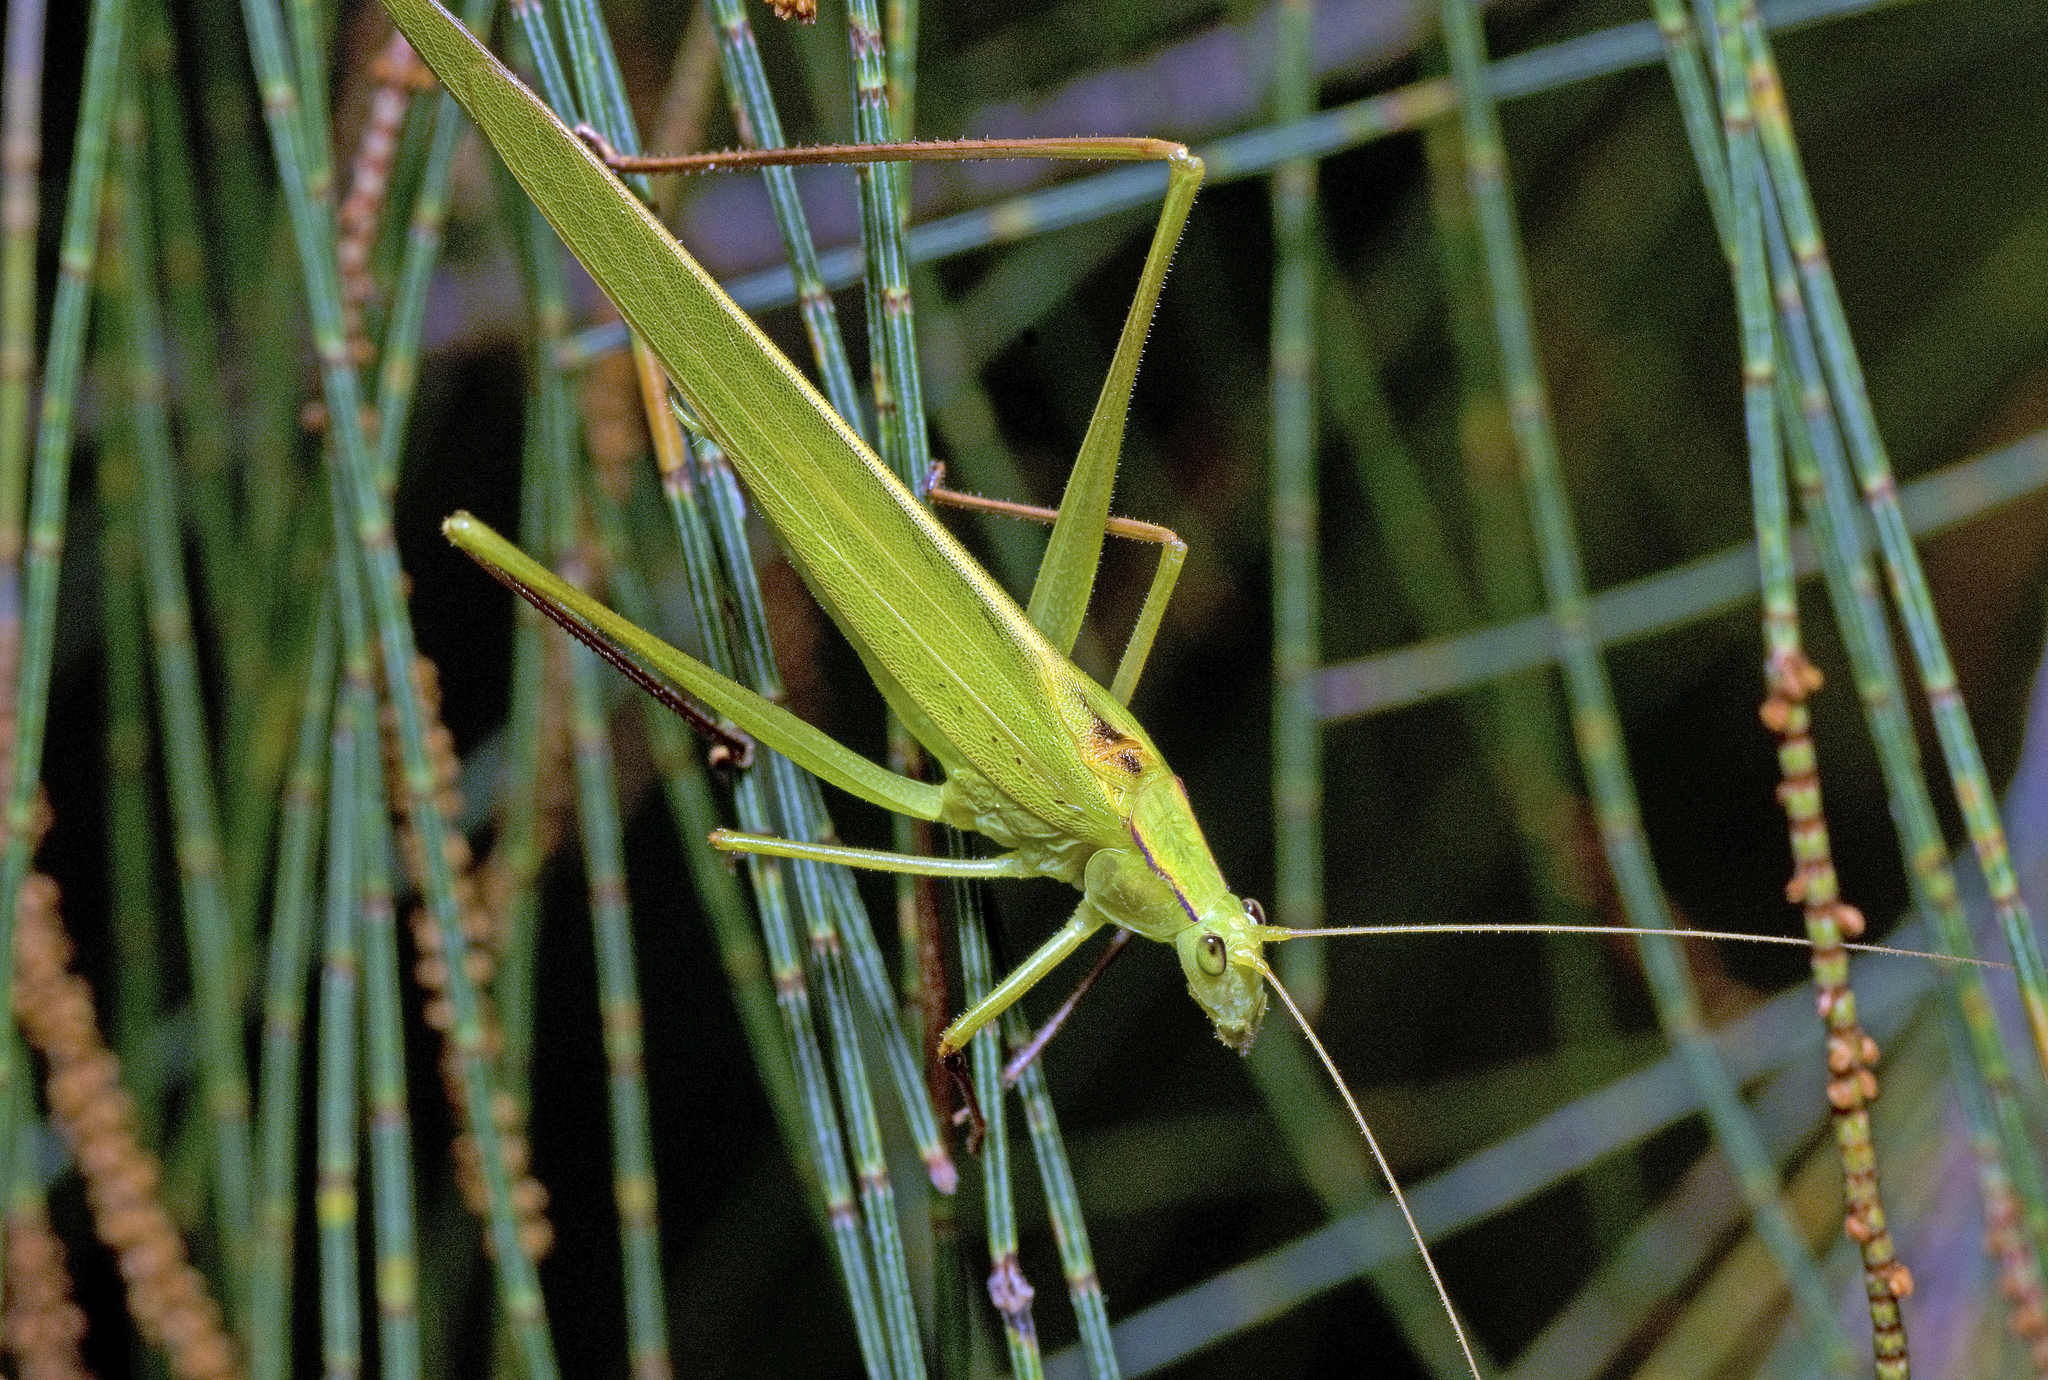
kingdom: Animalia
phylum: Arthropoda
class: Insecta
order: Orthoptera
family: Tettigoniidae
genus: Polichne
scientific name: Polichne parvicauda
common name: Short tailed polichene
